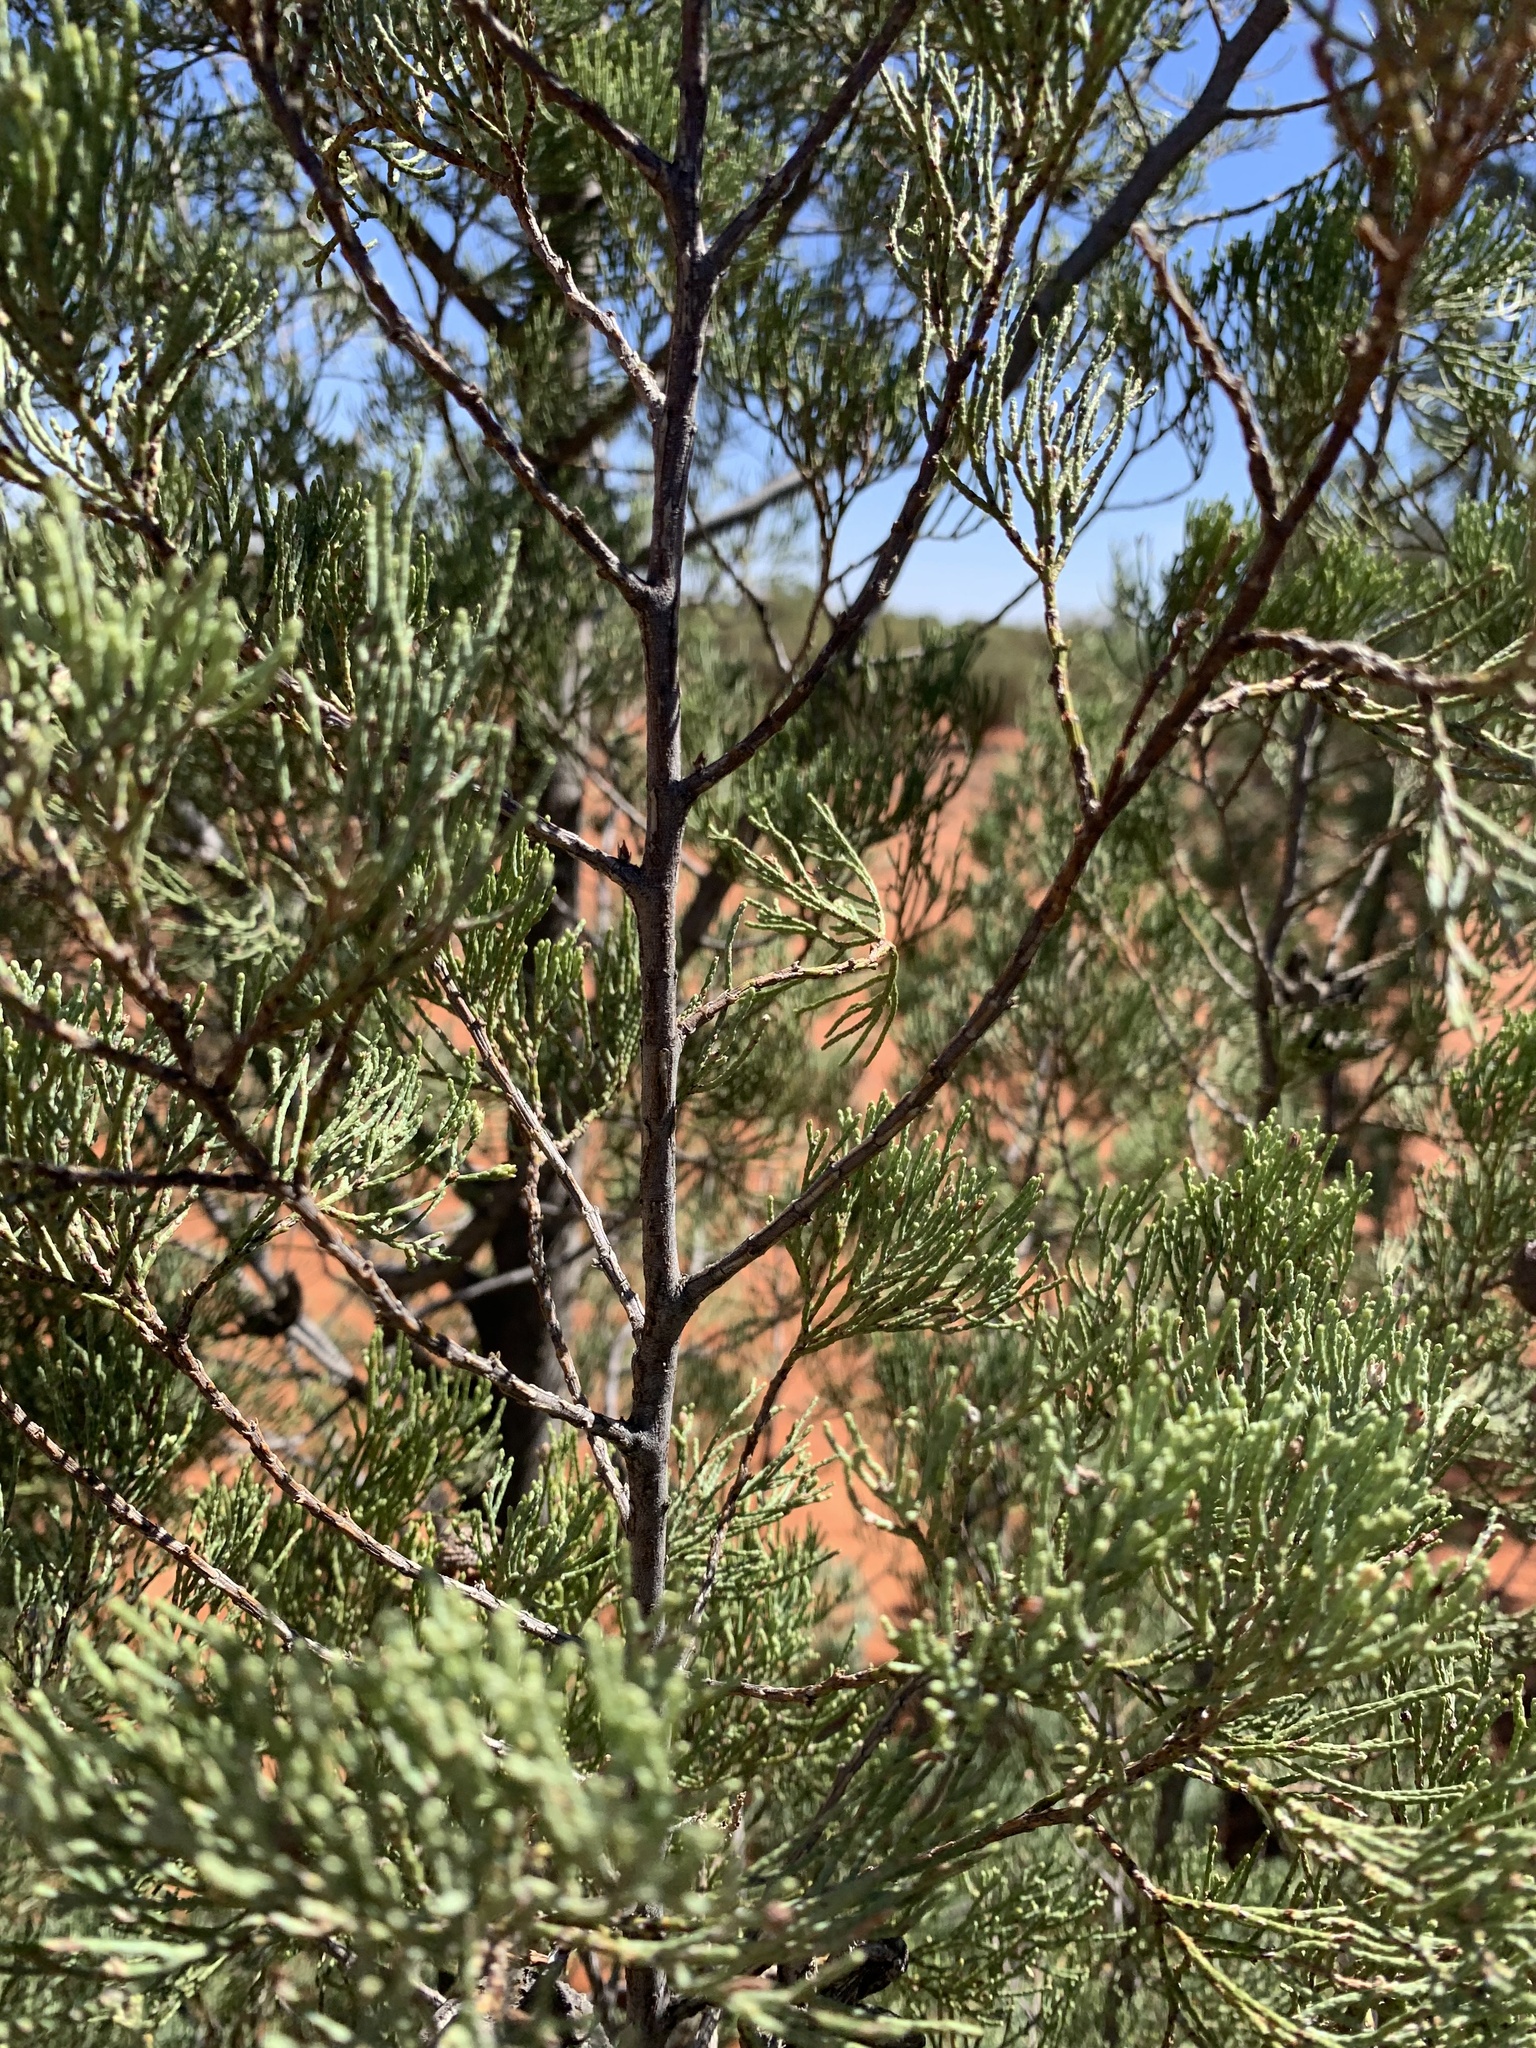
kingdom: Plantae
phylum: Tracheophyta
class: Pinopsida
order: Pinales
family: Cupressaceae
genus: Callitris
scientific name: Callitris columellaris
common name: White cypress-pine
